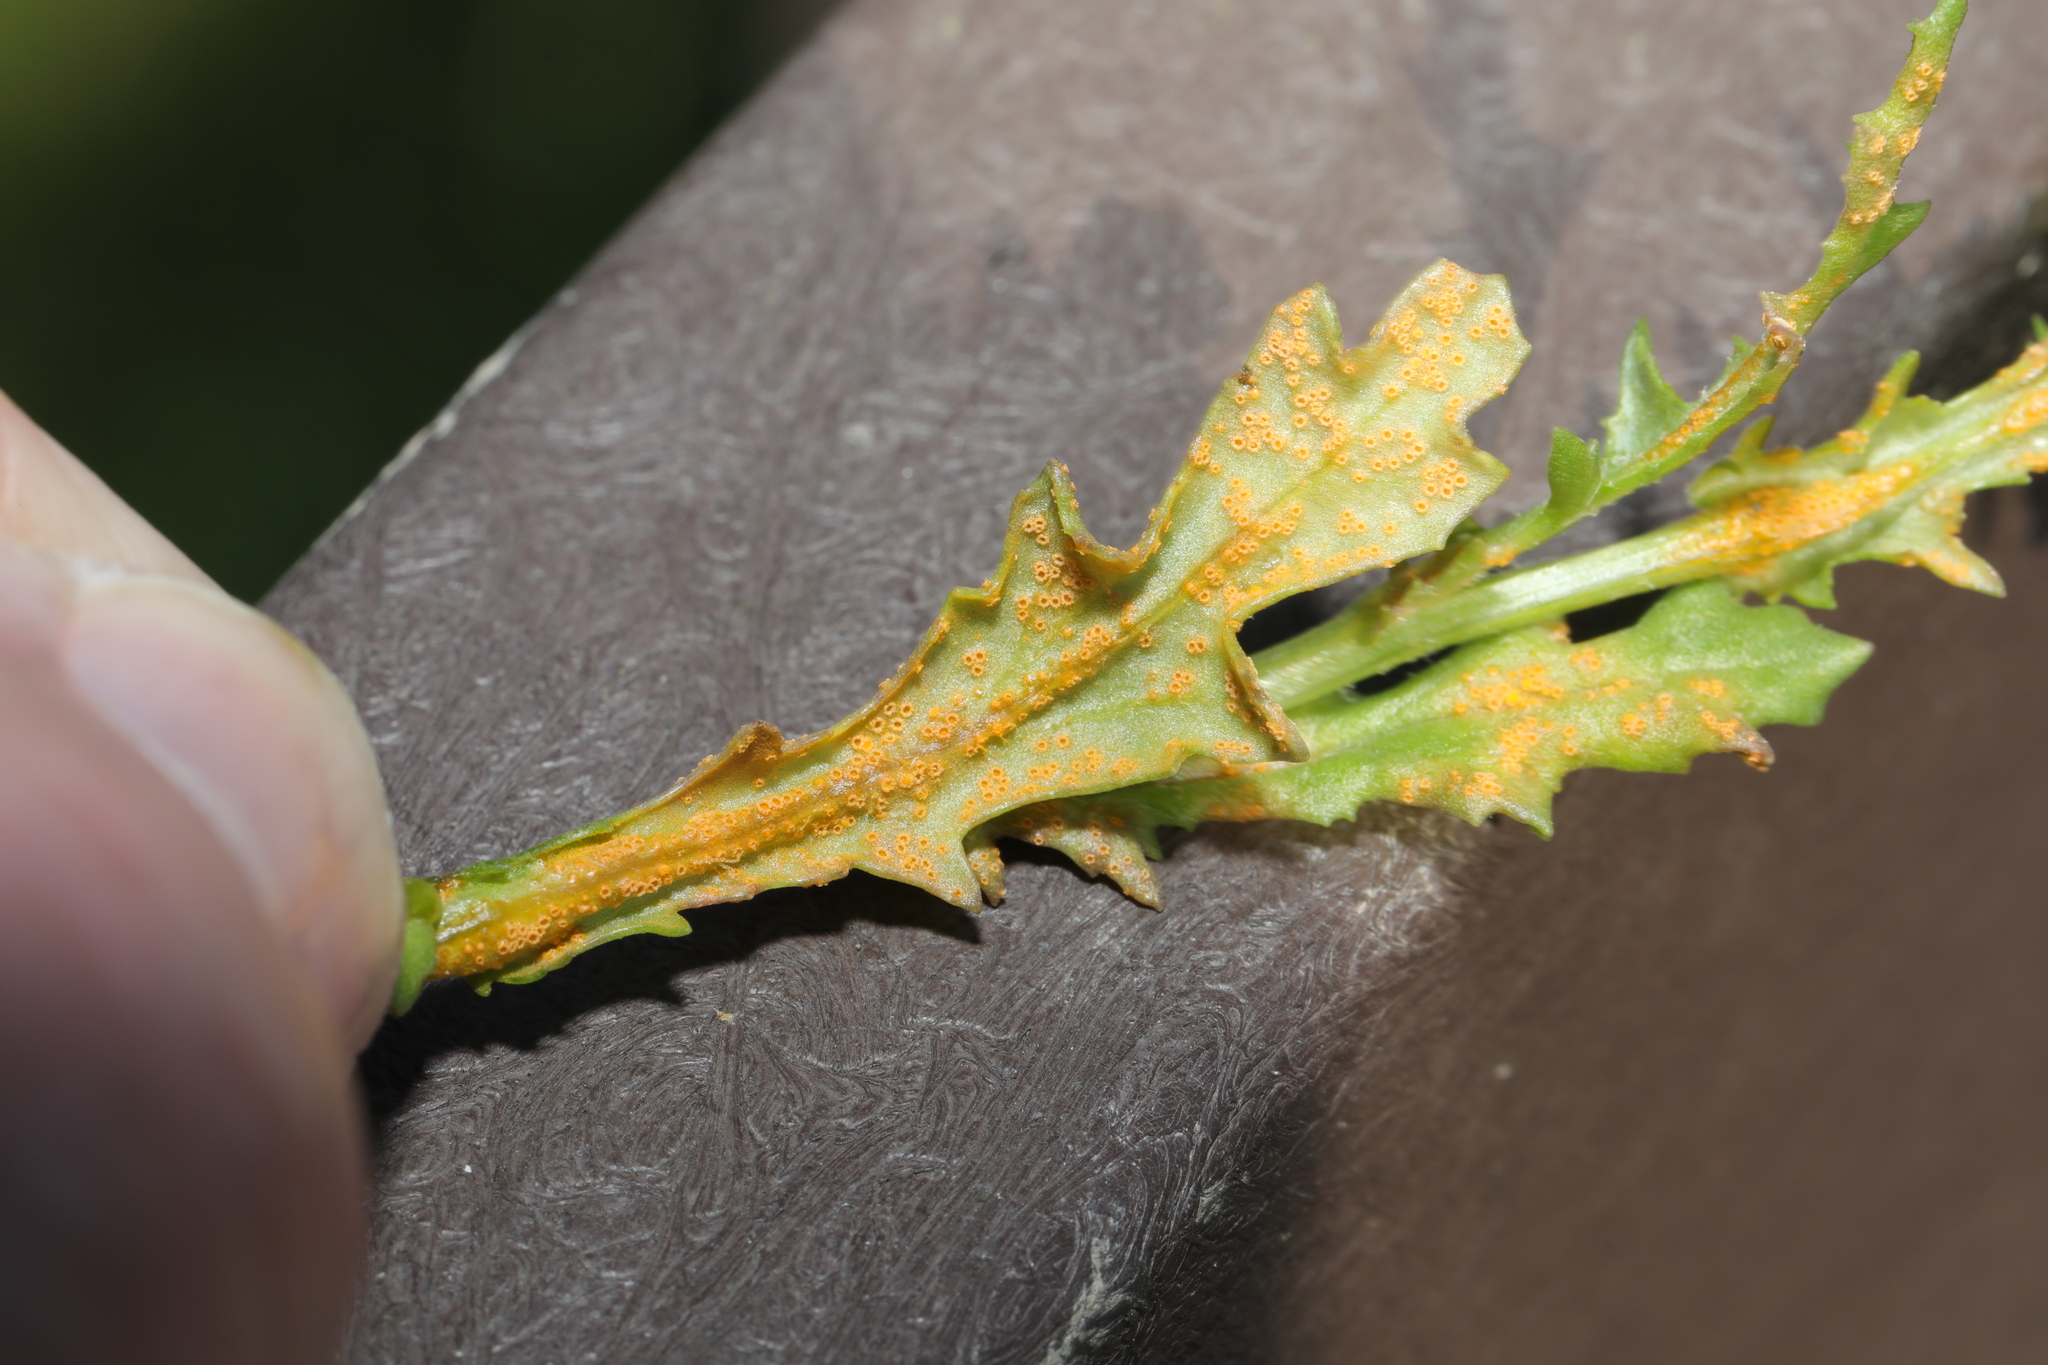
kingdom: Fungi
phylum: Basidiomycota
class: Pucciniomycetes
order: Pucciniales
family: Pucciniaceae
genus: Puccinia
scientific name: Puccinia lagenophorae
